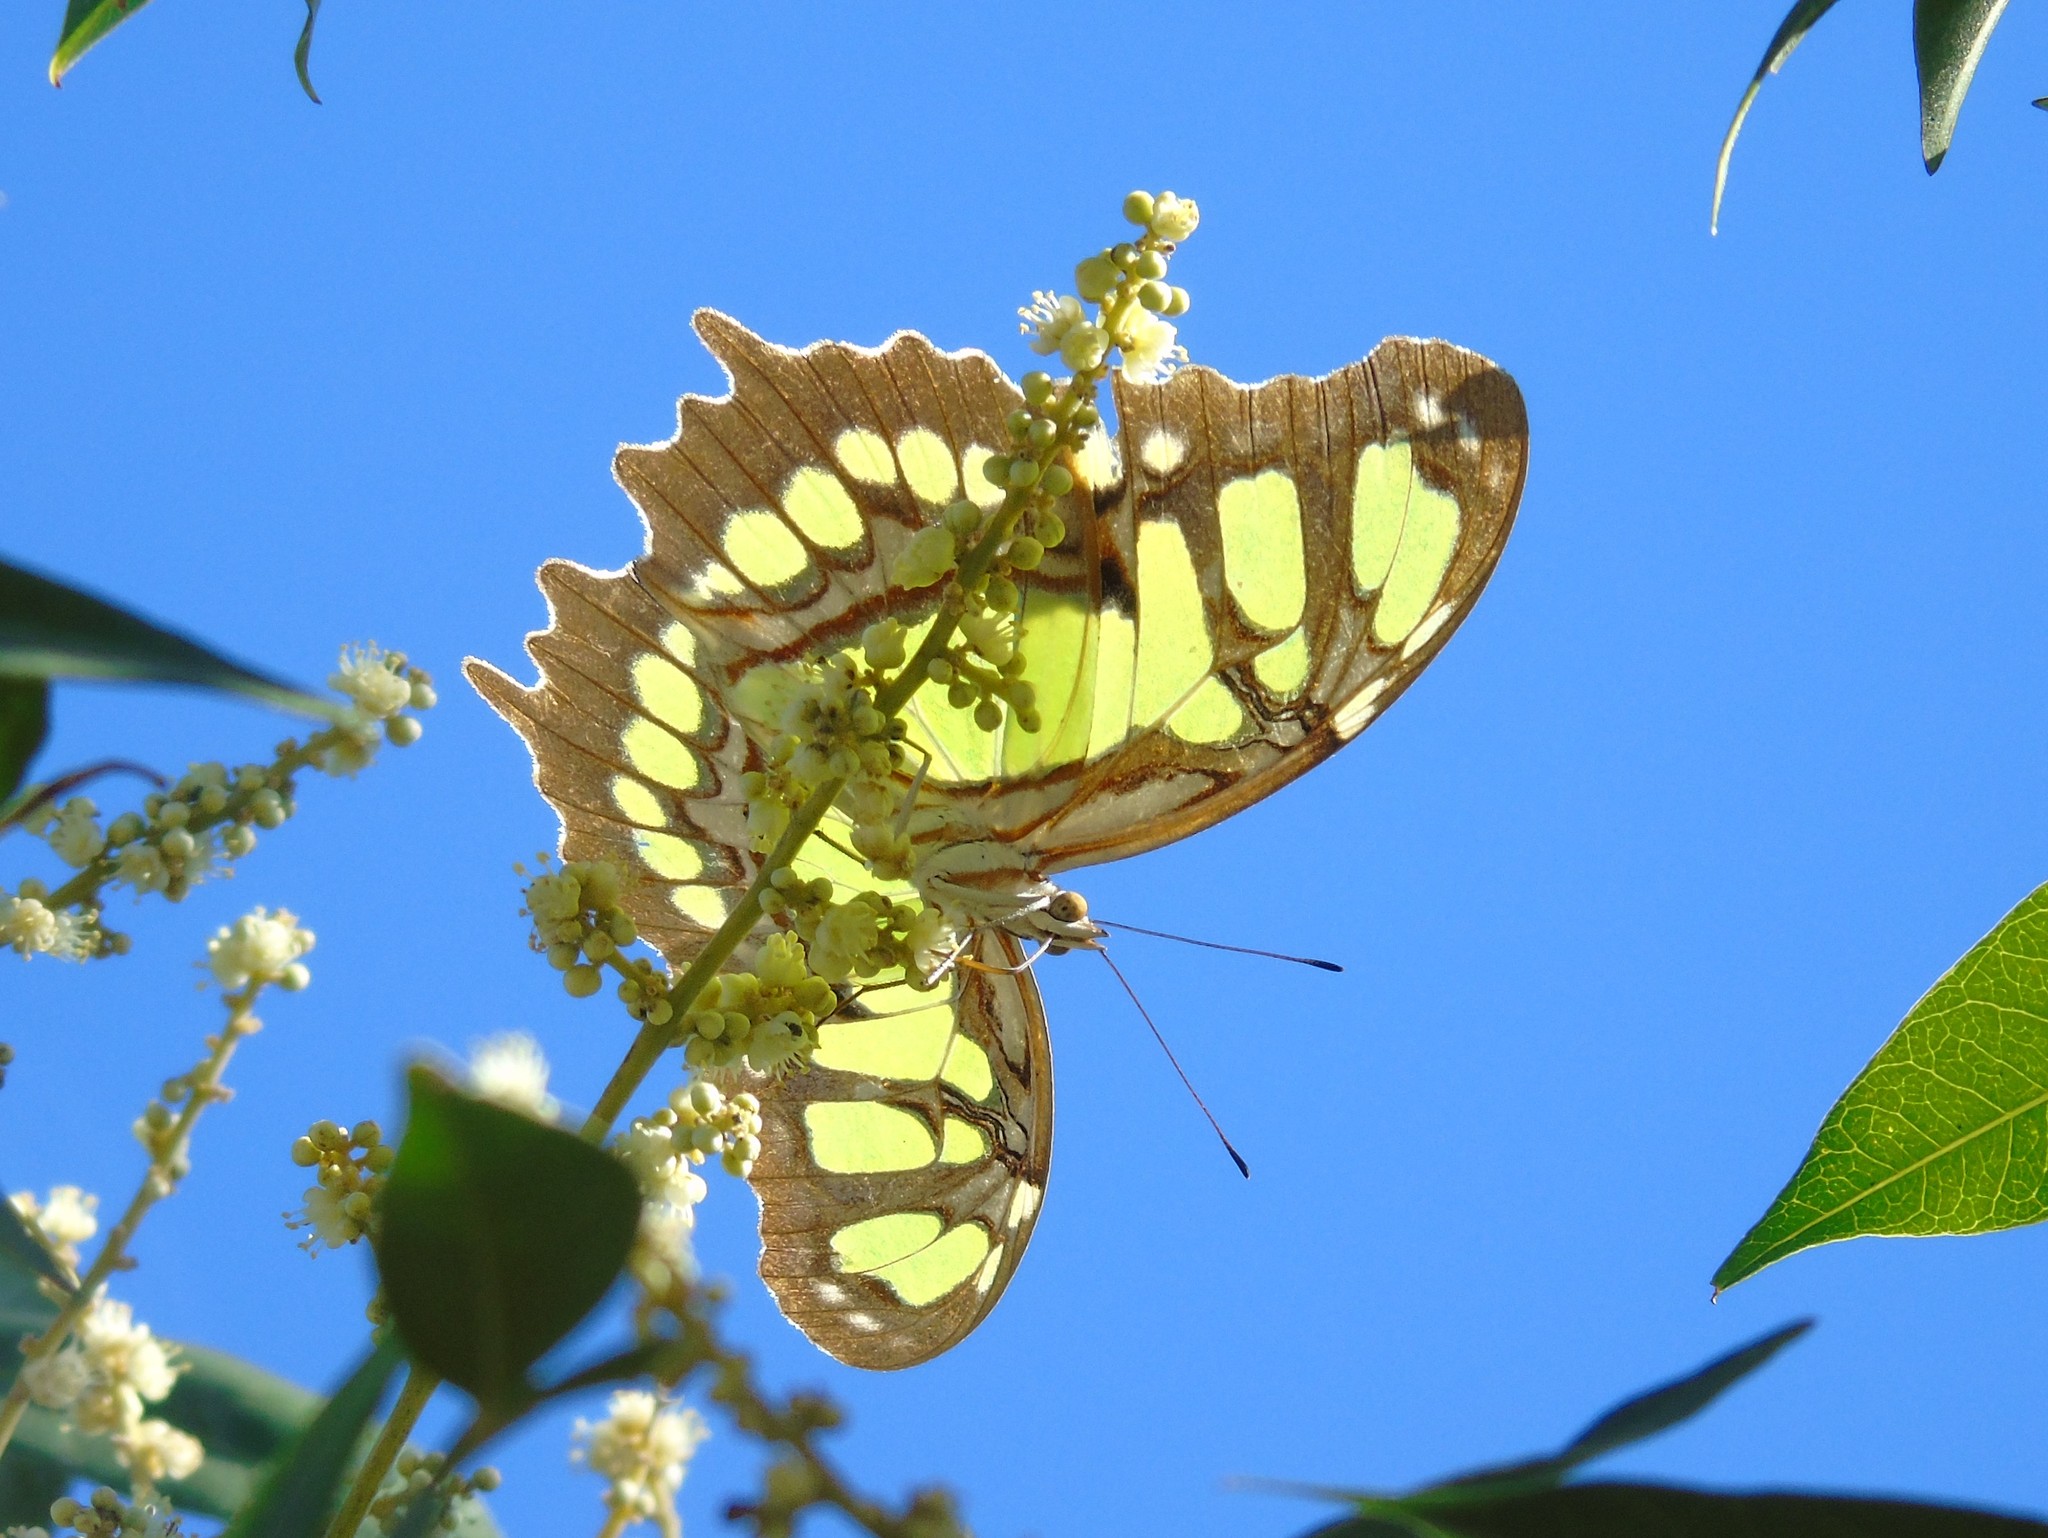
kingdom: Animalia
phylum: Arthropoda
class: Insecta
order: Lepidoptera
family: Nymphalidae
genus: Siproeta
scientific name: Siproeta stelenes
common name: Malachite
